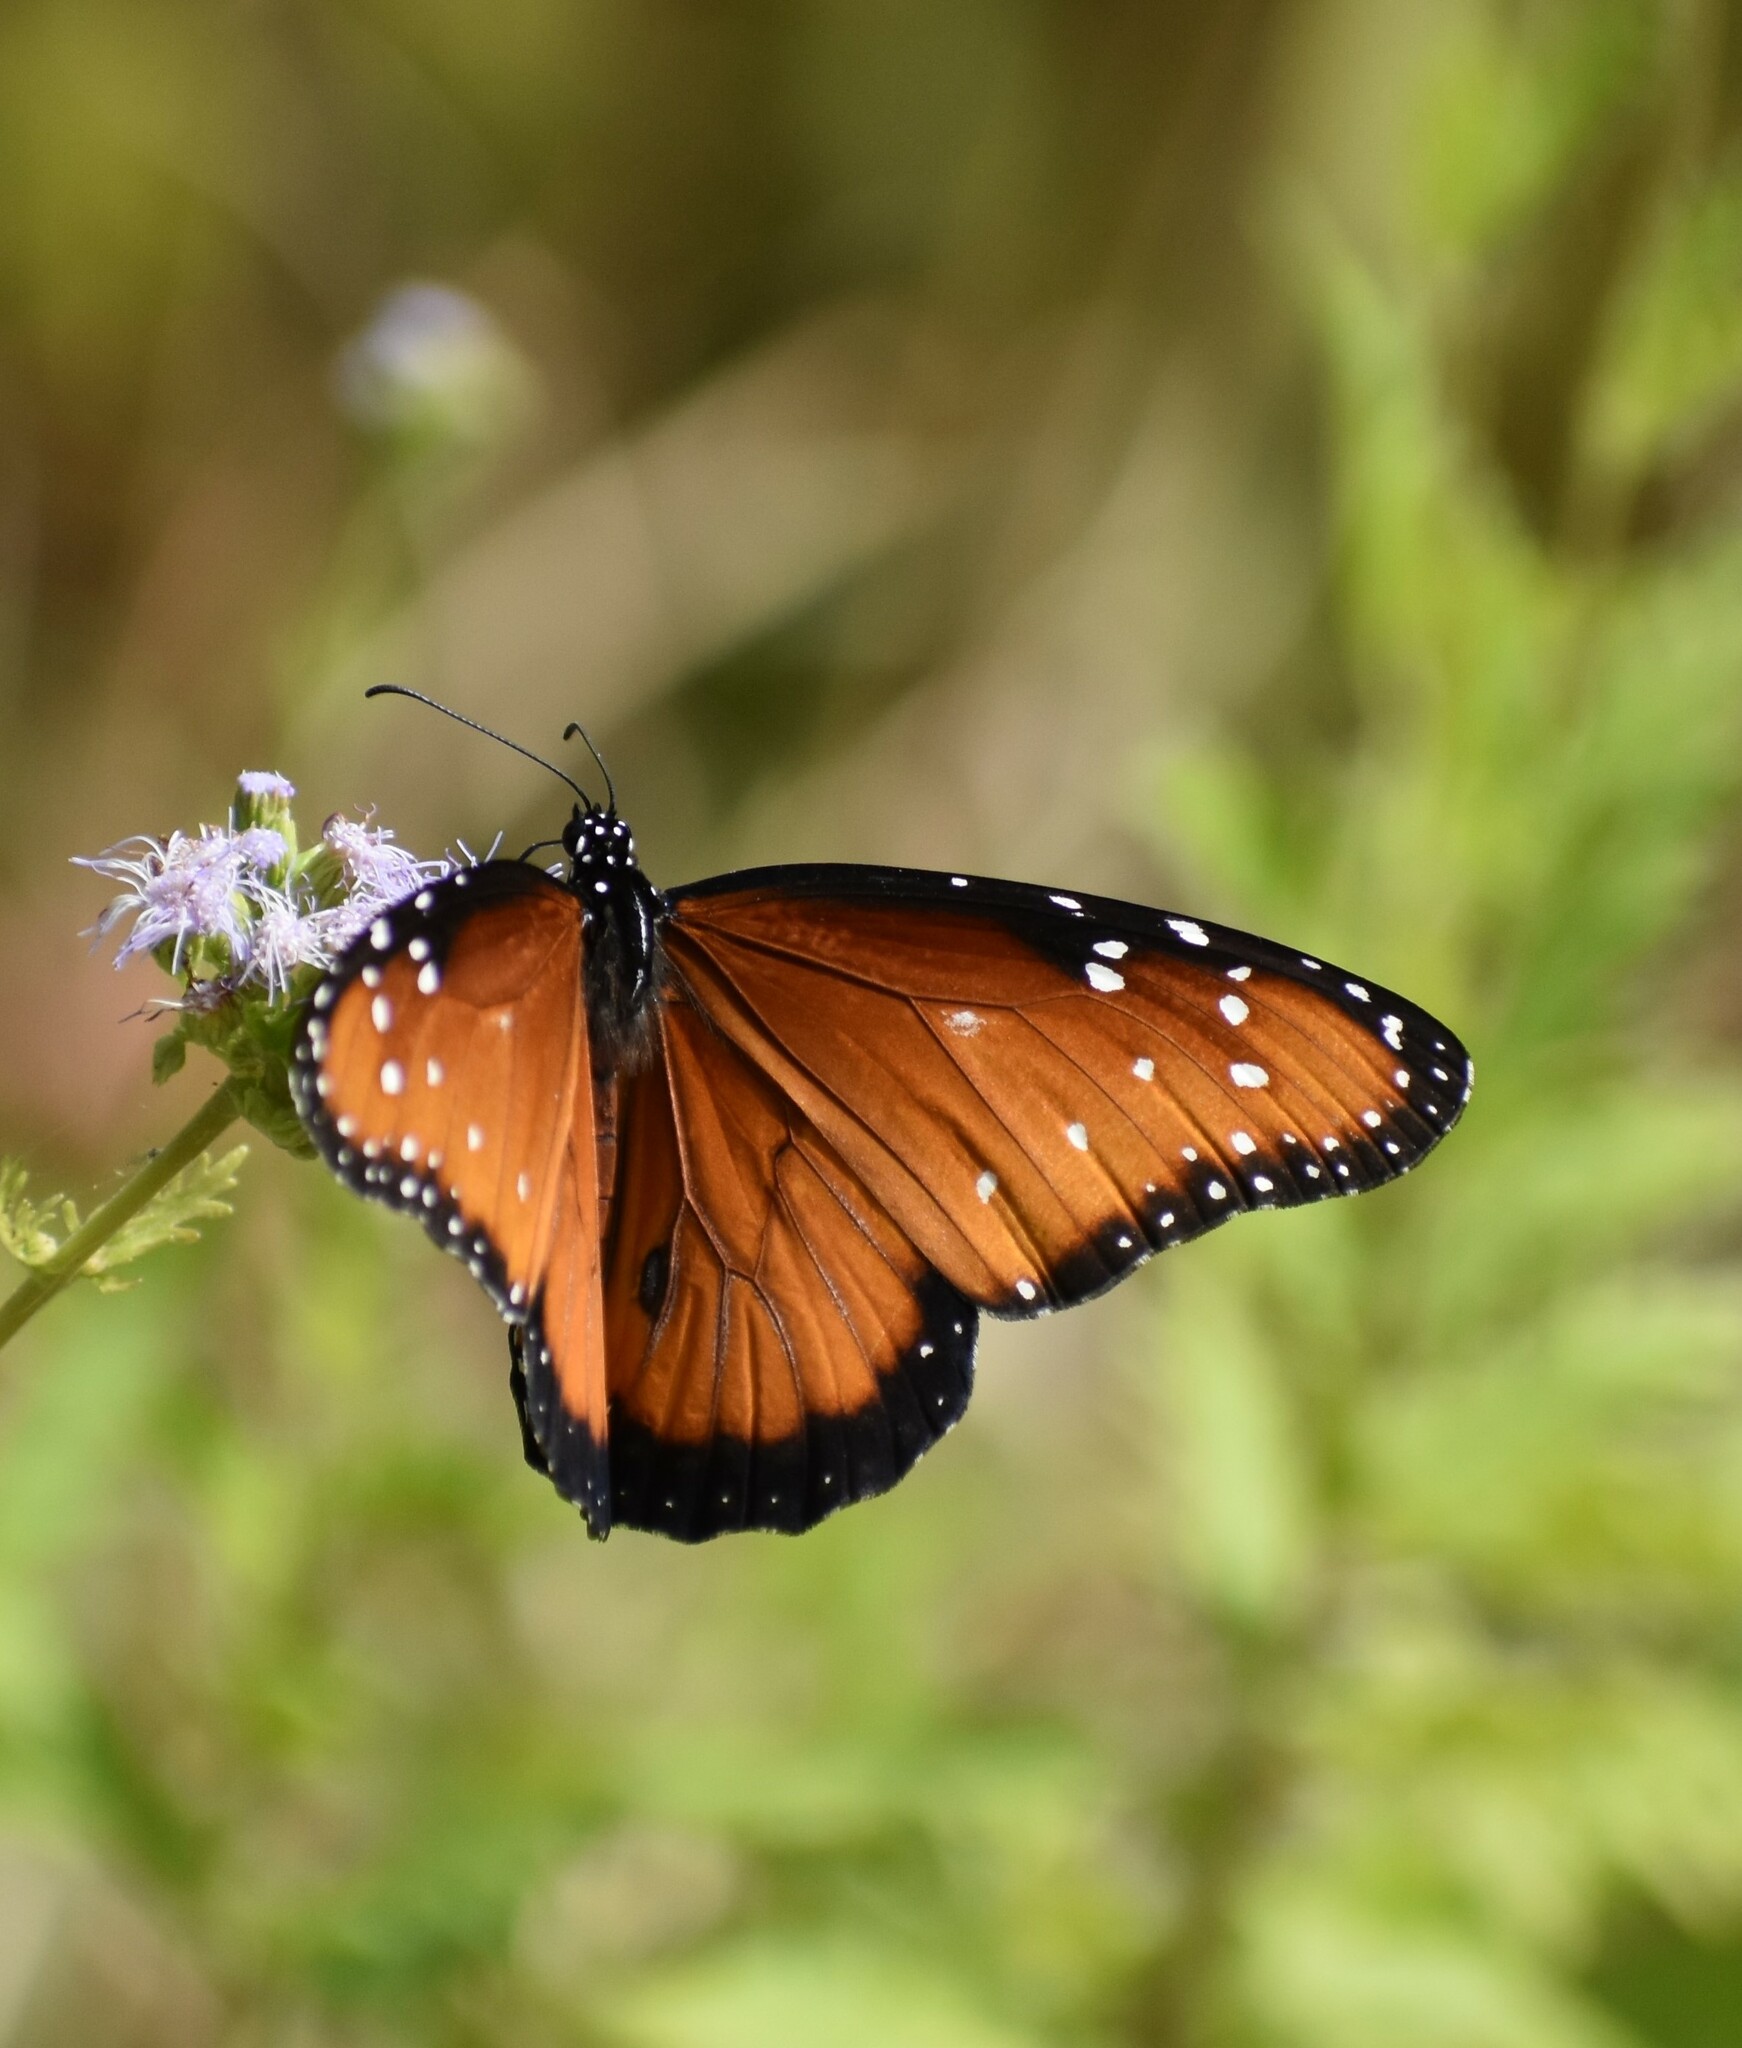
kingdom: Animalia
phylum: Arthropoda
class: Insecta
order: Lepidoptera
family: Nymphalidae
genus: Danaus
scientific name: Danaus gilippus
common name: Queen
